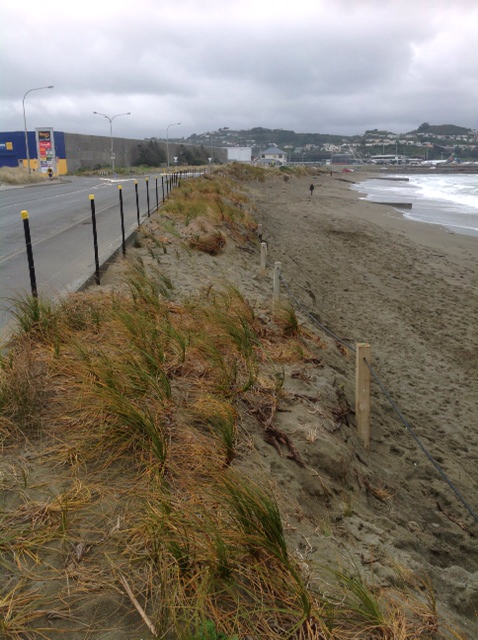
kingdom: Plantae
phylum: Tracheophyta
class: Liliopsida
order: Poales
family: Cyperaceae
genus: Ficinia
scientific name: Ficinia spiralis
